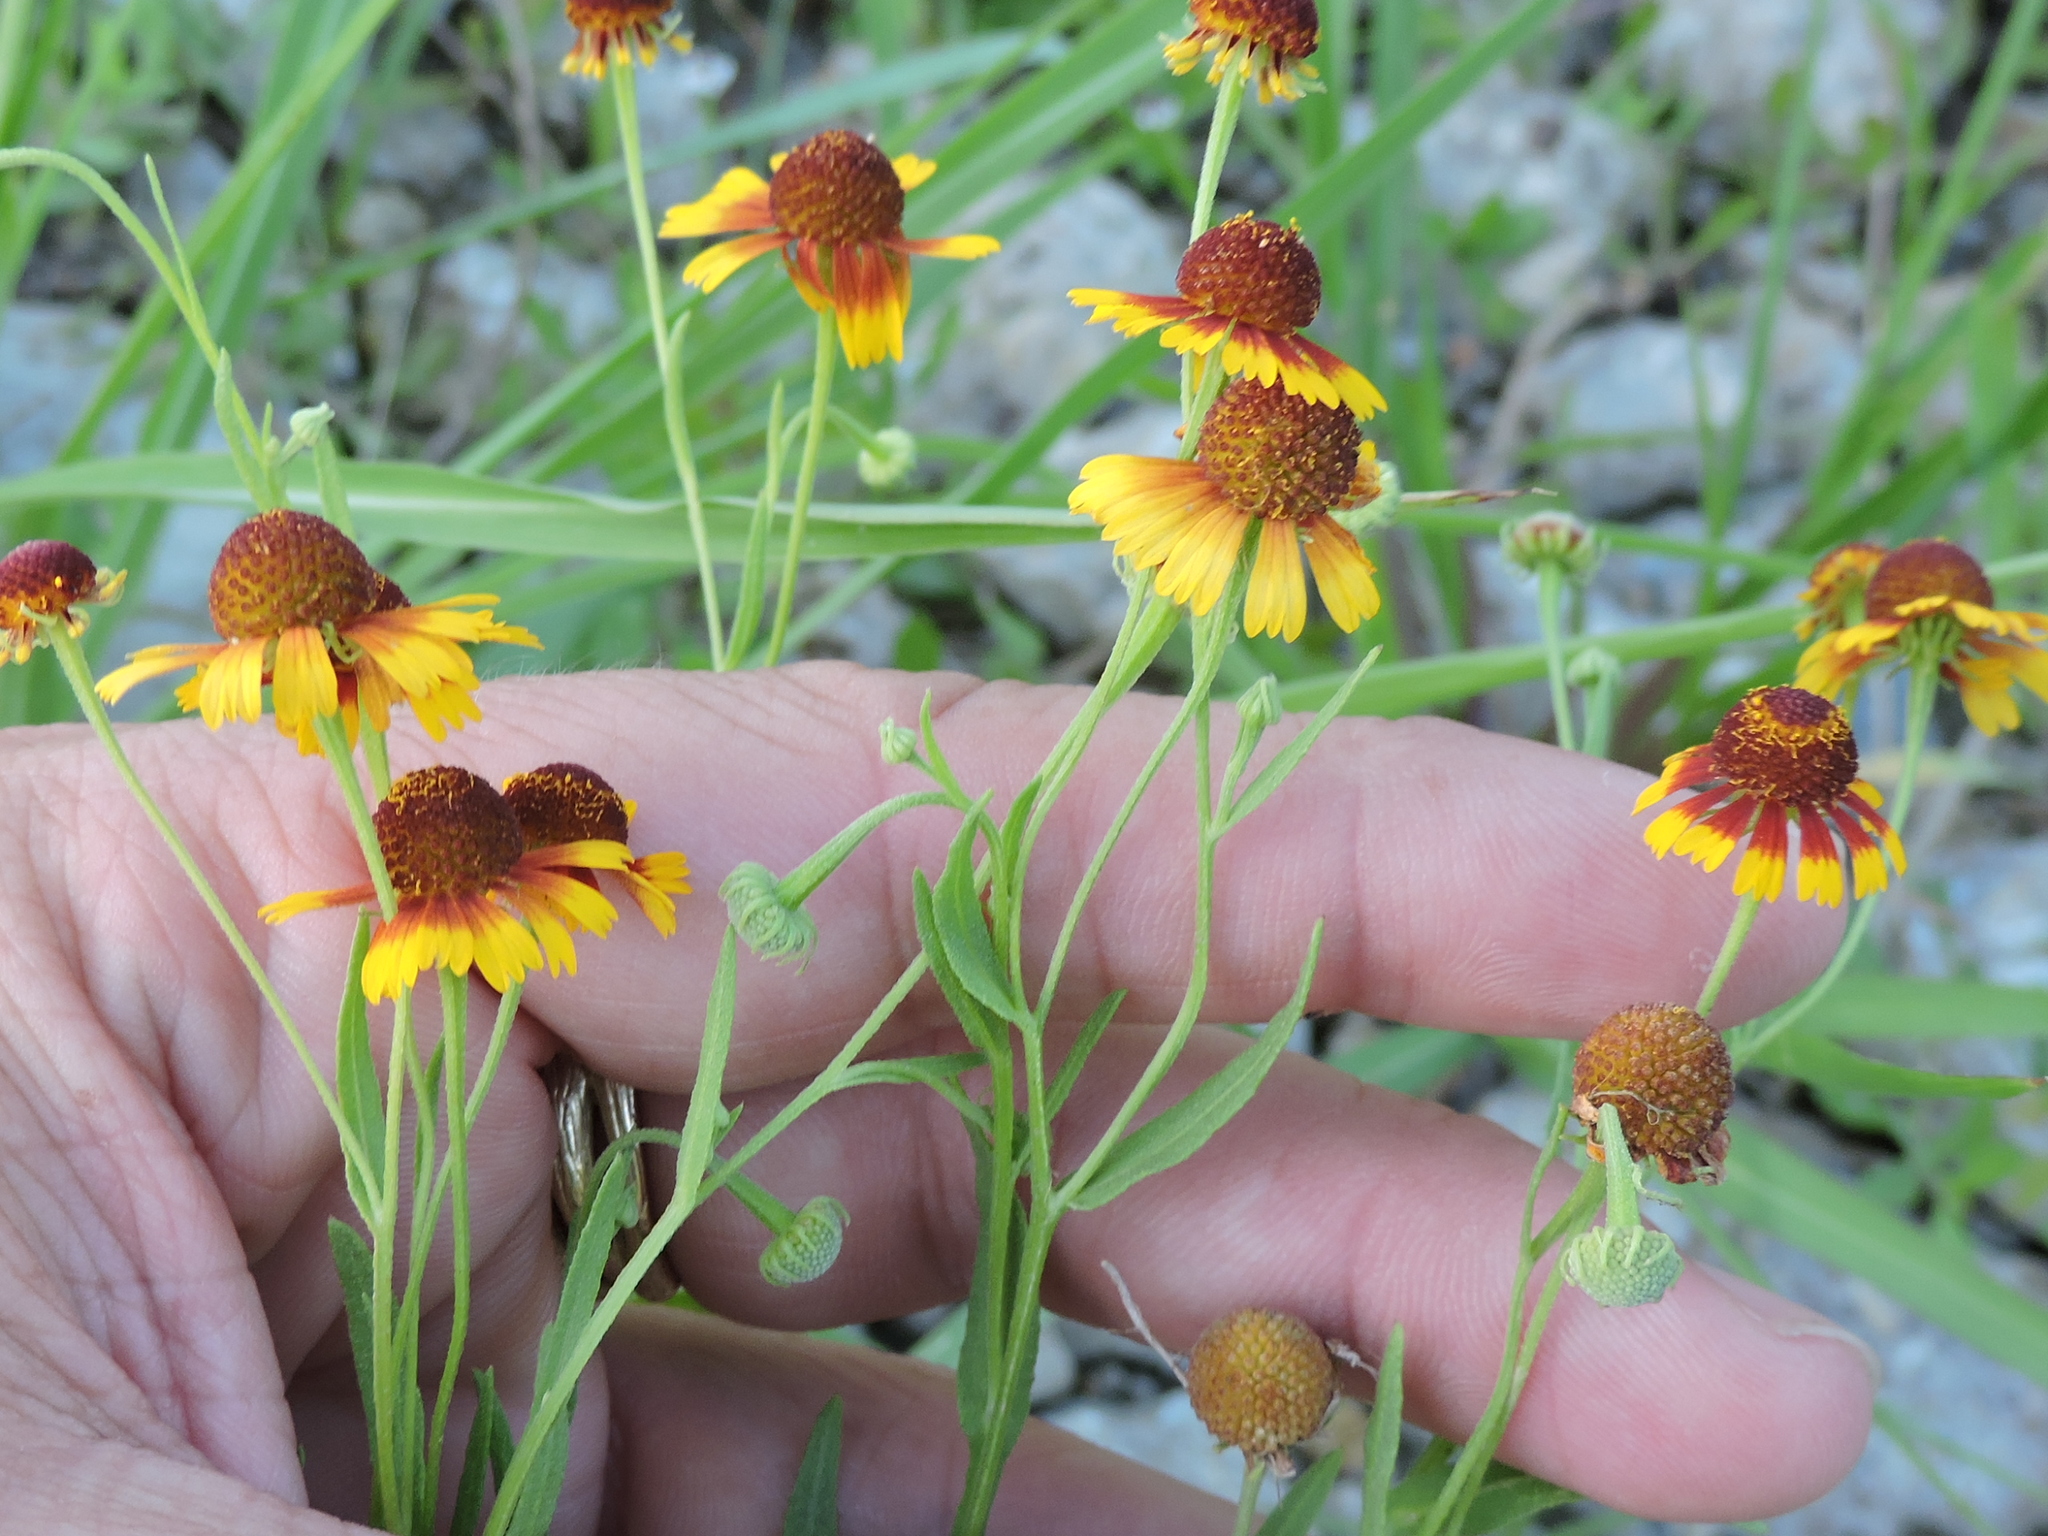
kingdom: Plantae
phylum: Tracheophyta
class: Magnoliopsida
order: Asterales
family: Asteraceae
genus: Helenium
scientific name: Helenium elegans
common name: Pretty sneezeweed
